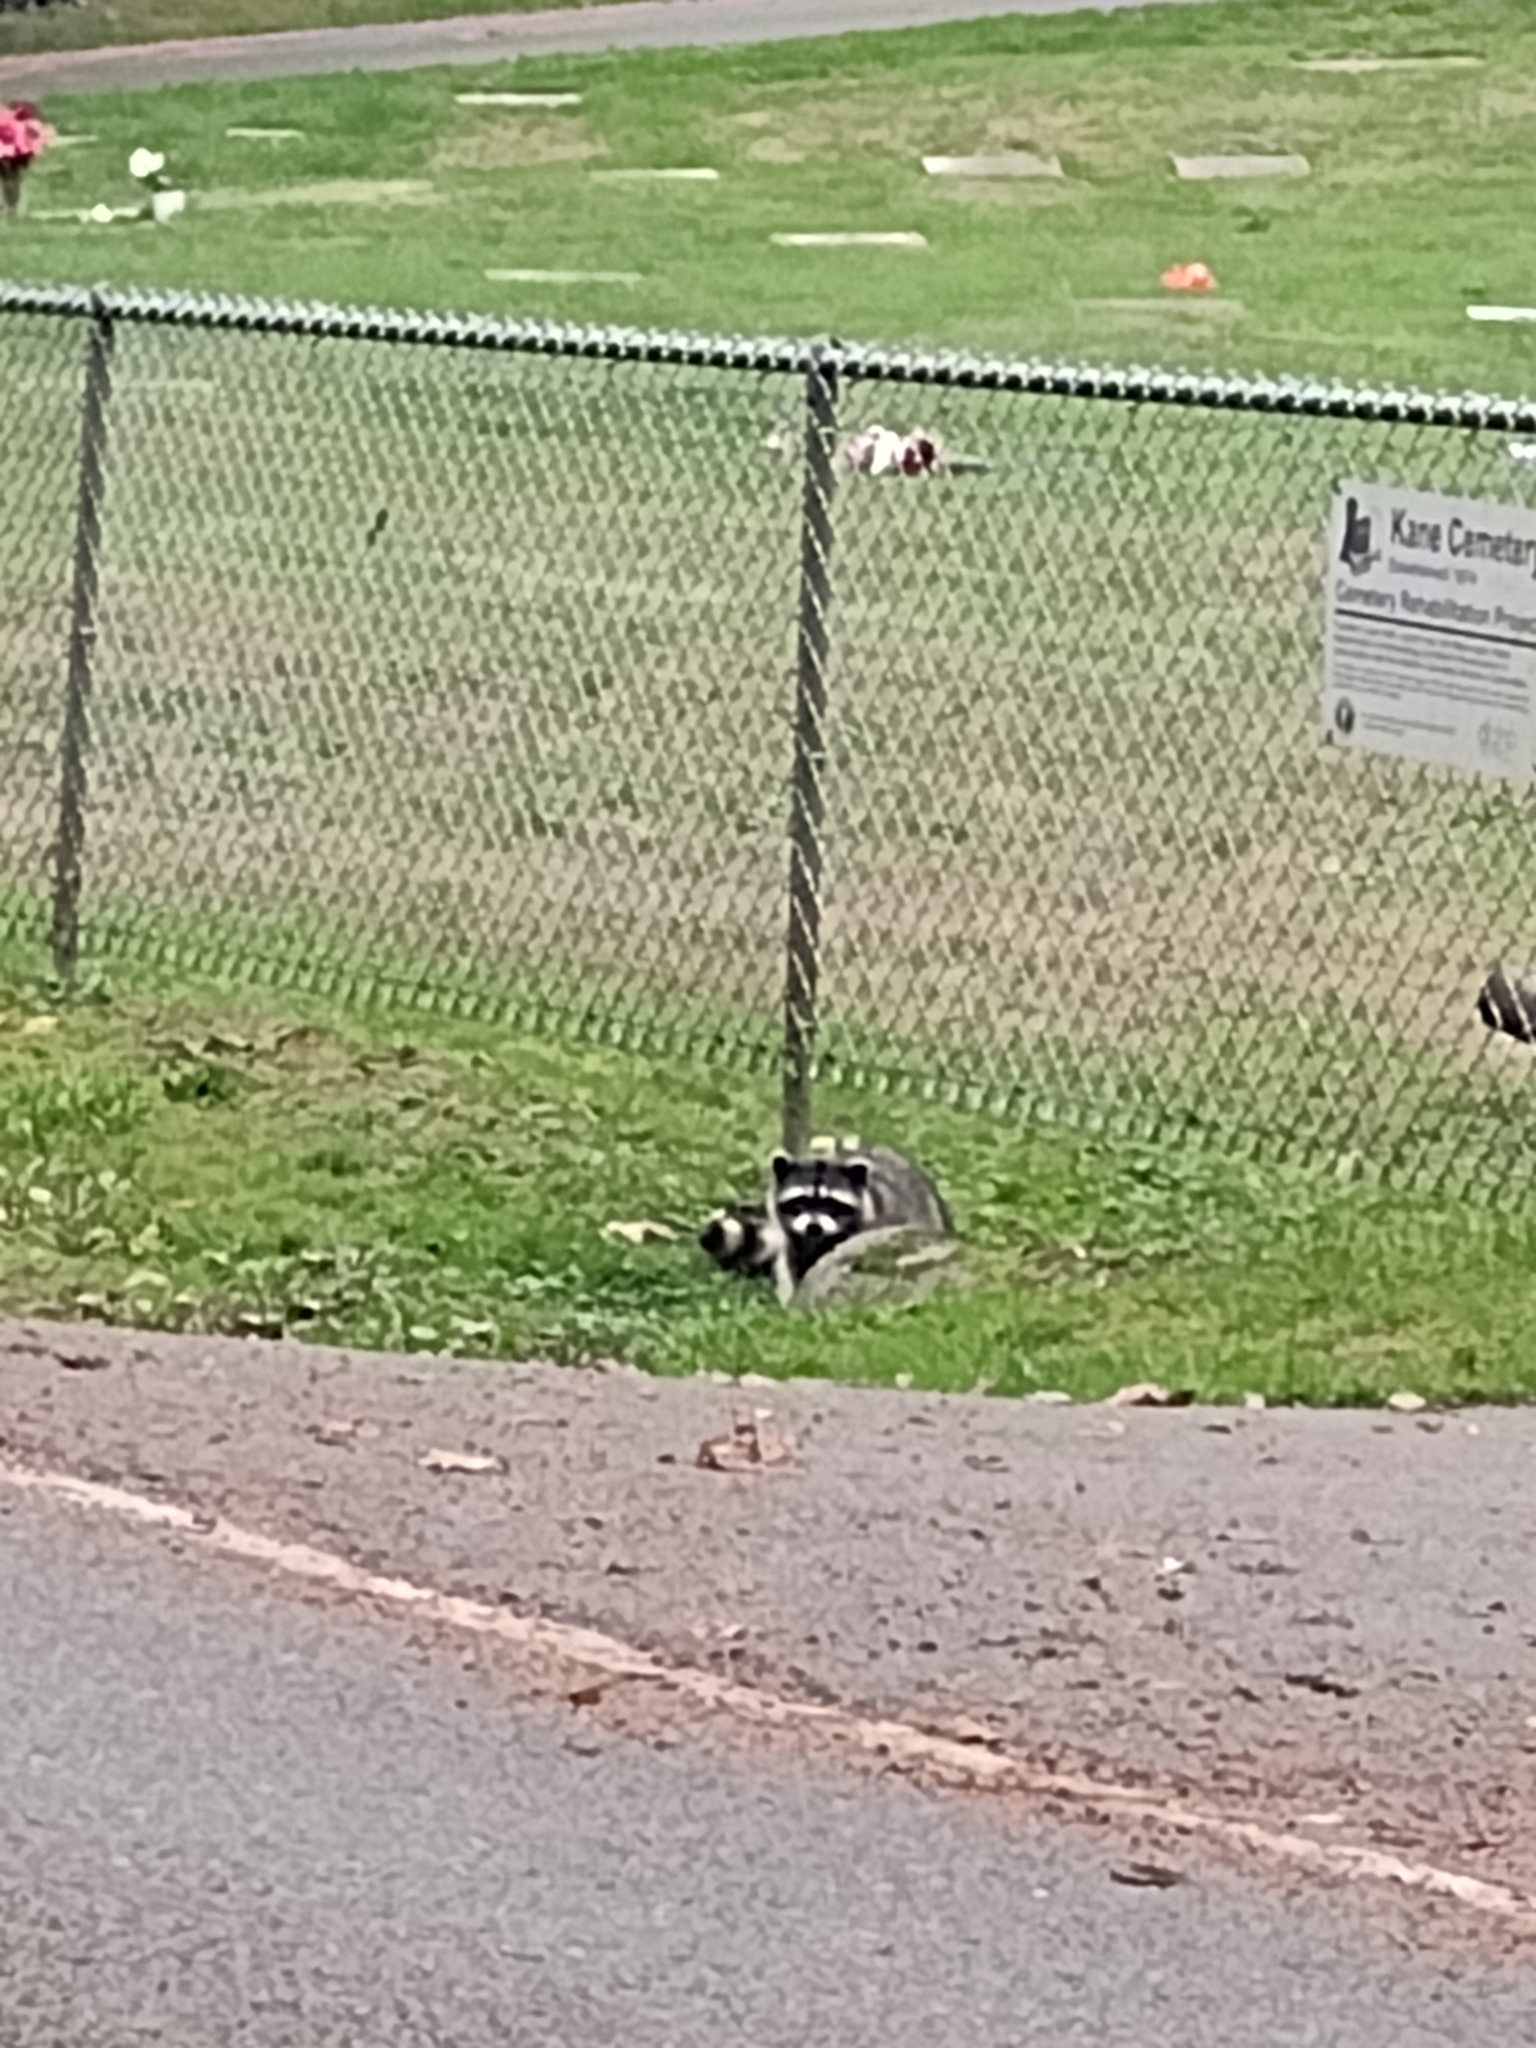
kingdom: Animalia
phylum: Chordata
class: Mammalia
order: Carnivora
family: Procyonidae
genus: Procyon
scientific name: Procyon lotor
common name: Raccoon
